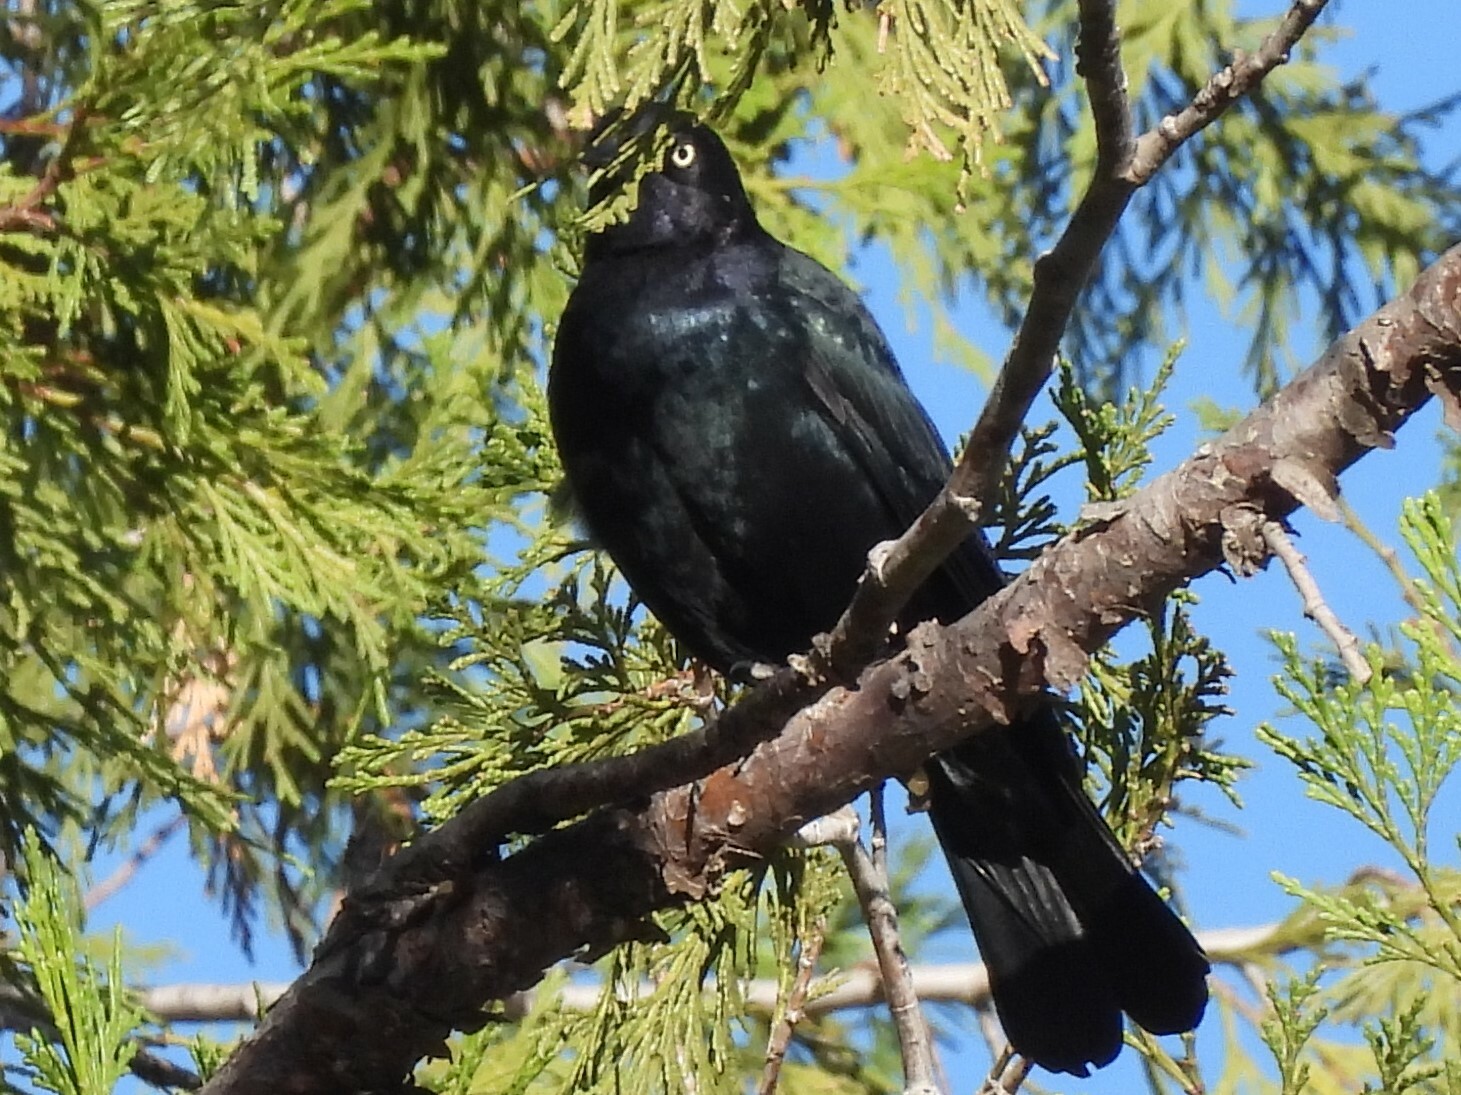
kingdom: Animalia
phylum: Chordata
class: Aves
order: Passeriformes
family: Icteridae
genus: Euphagus
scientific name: Euphagus cyanocephalus
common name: Brewer's blackbird
